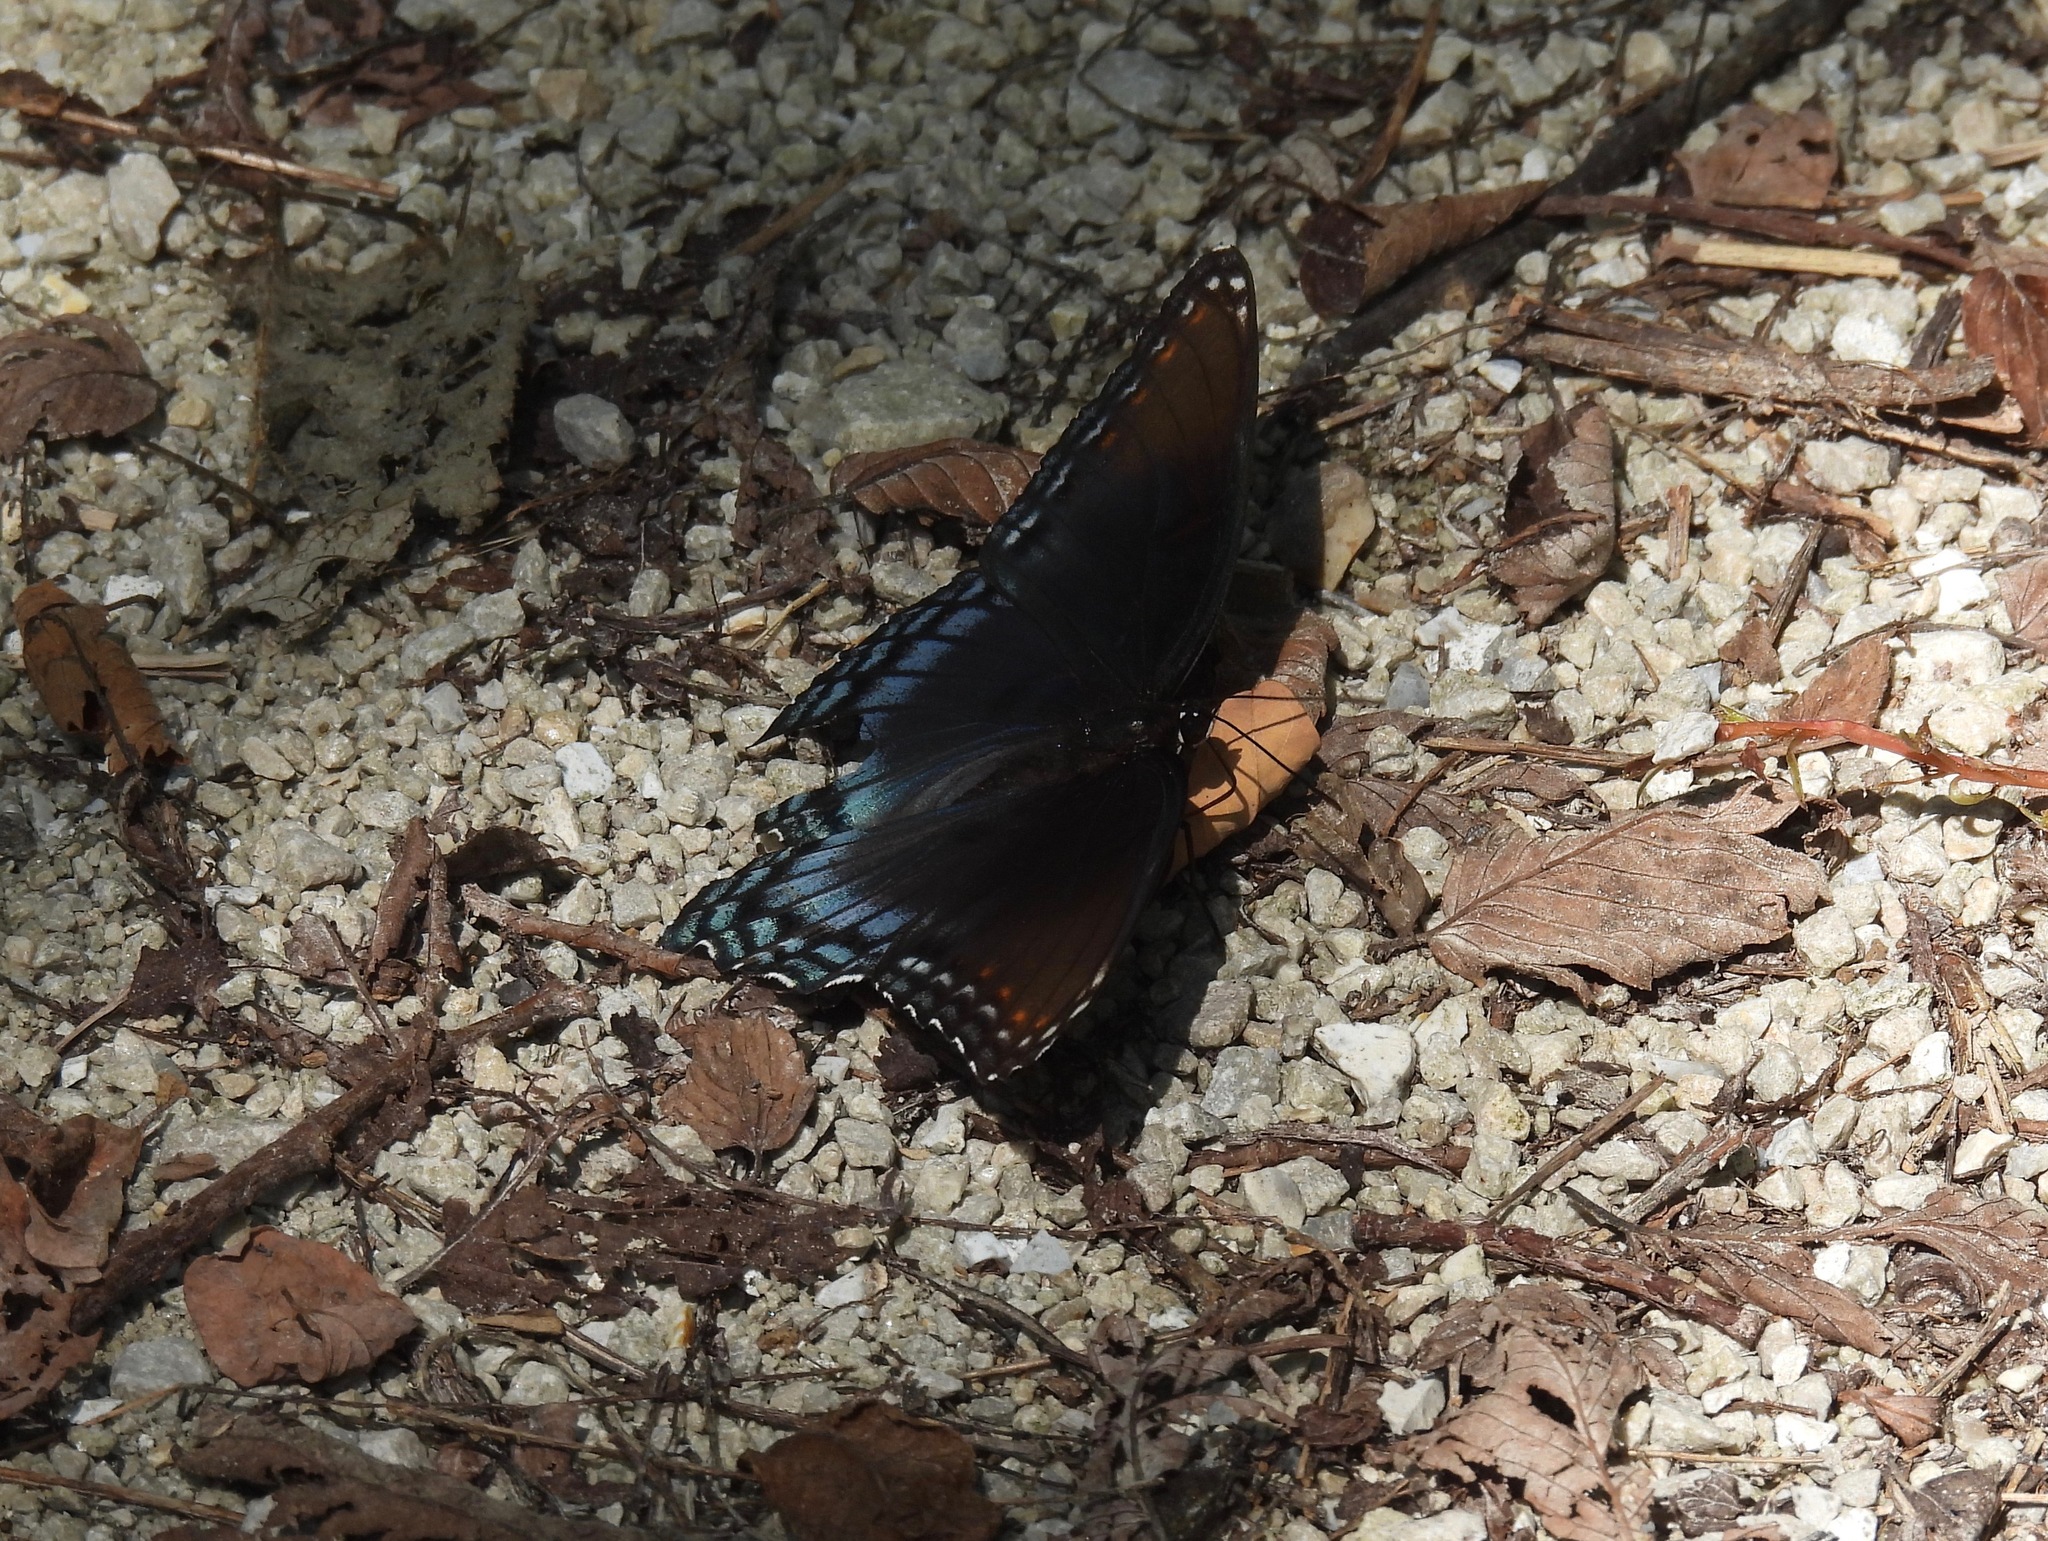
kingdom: Animalia
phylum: Arthropoda
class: Insecta
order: Lepidoptera
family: Nymphalidae
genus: Limenitis
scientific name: Limenitis astyanax
